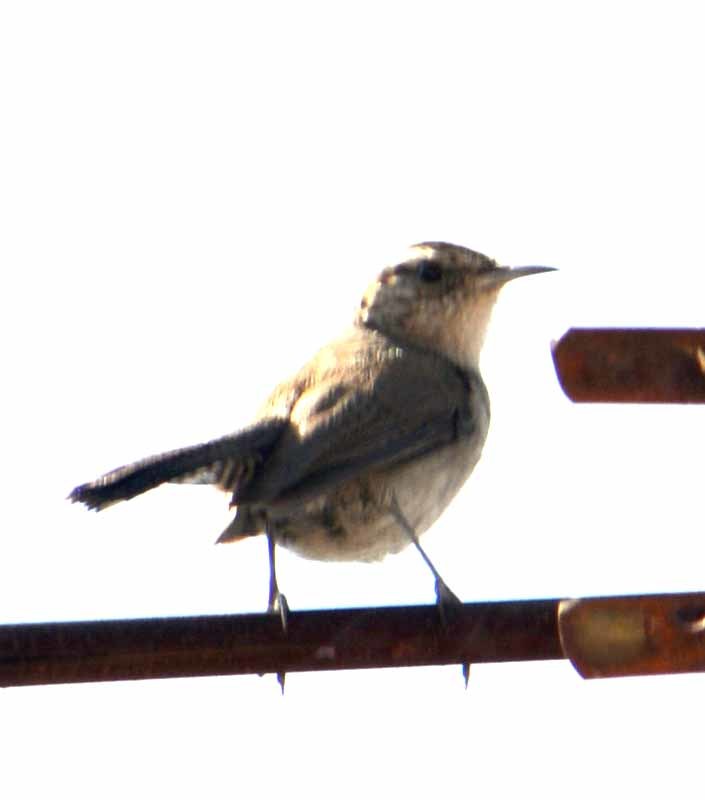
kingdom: Animalia
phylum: Chordata
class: Aves
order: Passeriformes
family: Troglodytidae
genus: Thryomanes
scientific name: Thryomanes bewickii
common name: Bewick's wren
